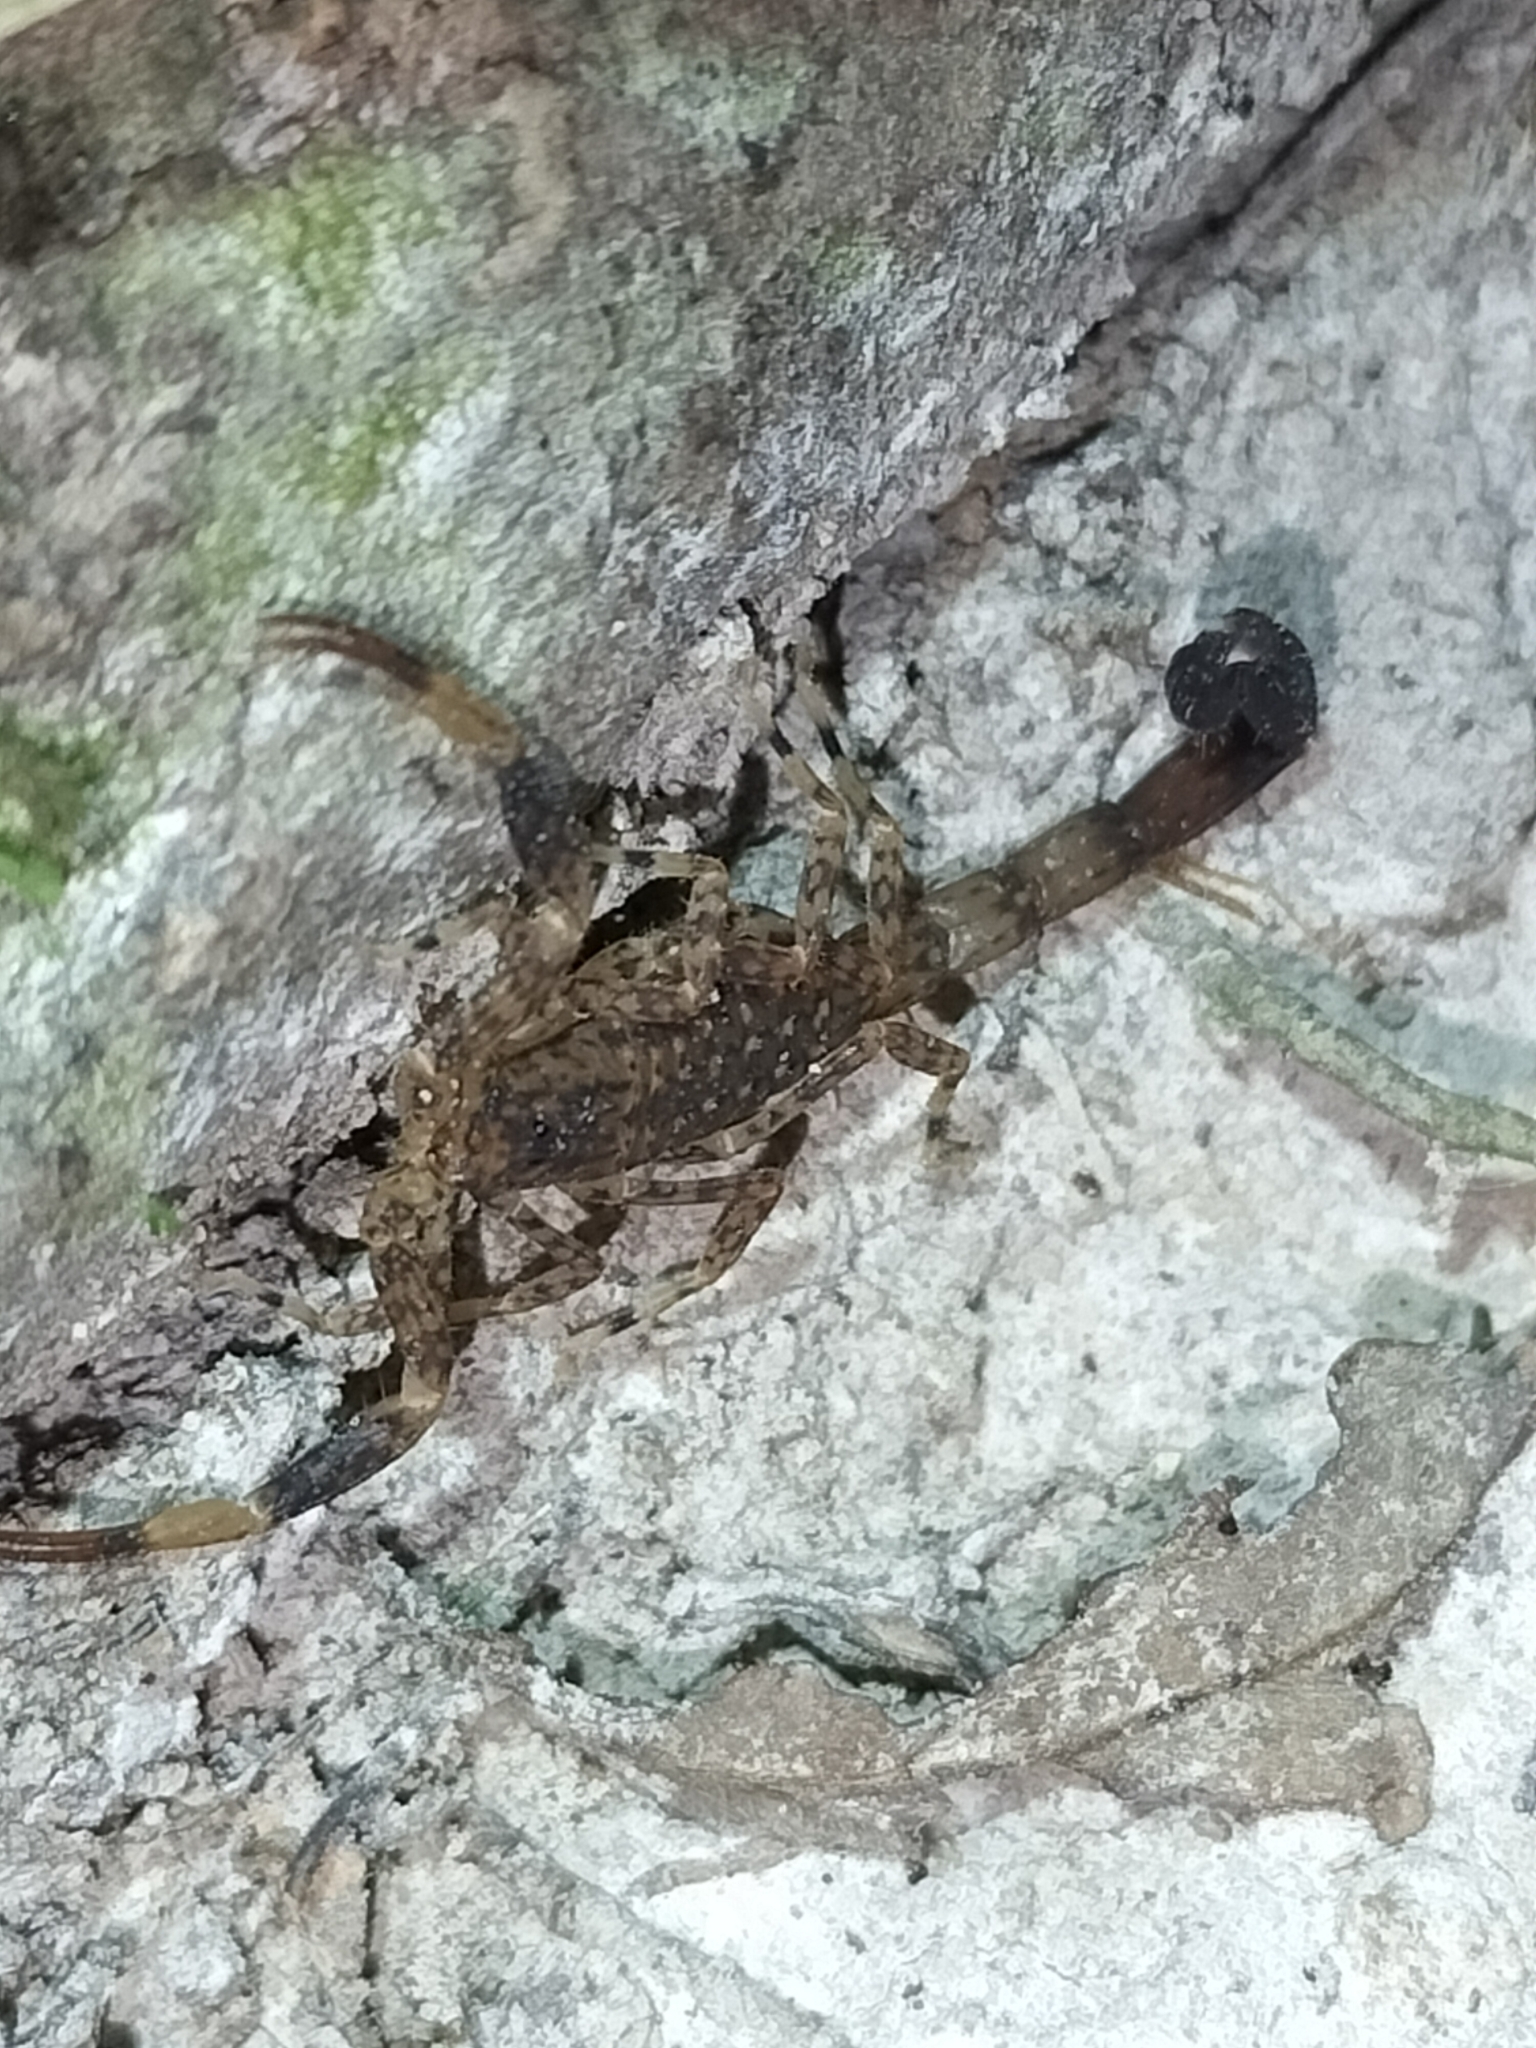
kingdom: Animalia
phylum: Arthropoda
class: Arachnida
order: Scorpiones
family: Buthidae
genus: Lychas
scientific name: Lychas variatus
